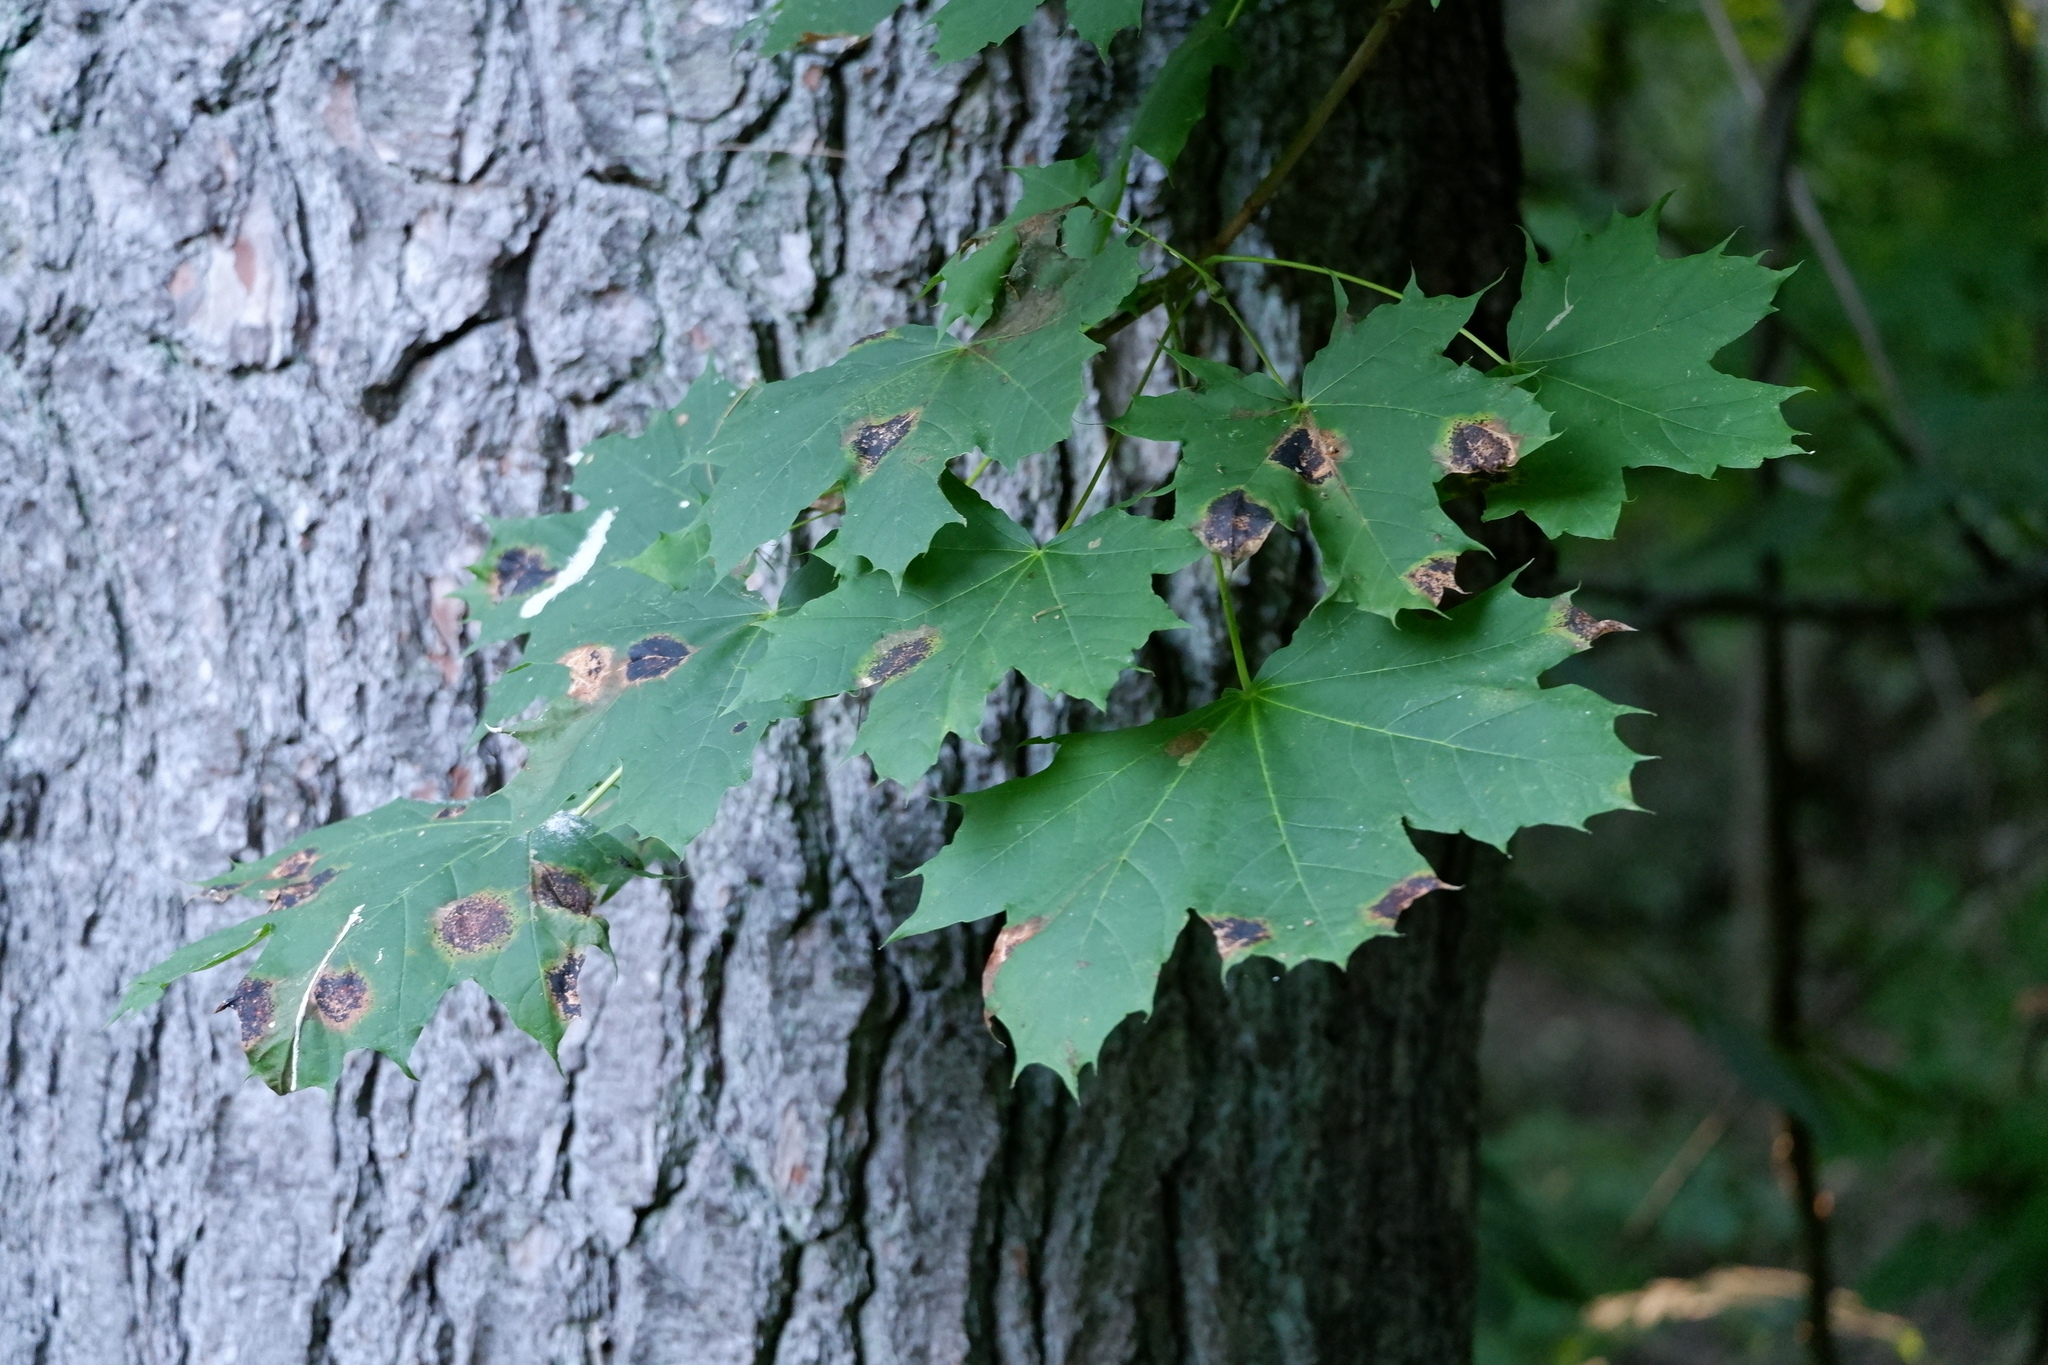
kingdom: Fungi
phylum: Ascomycota
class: Leotiomycetes
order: Rhytismatales
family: Rhytismataceae
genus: Rhytisma
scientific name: Rhytisma acerinum
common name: European tar spot
